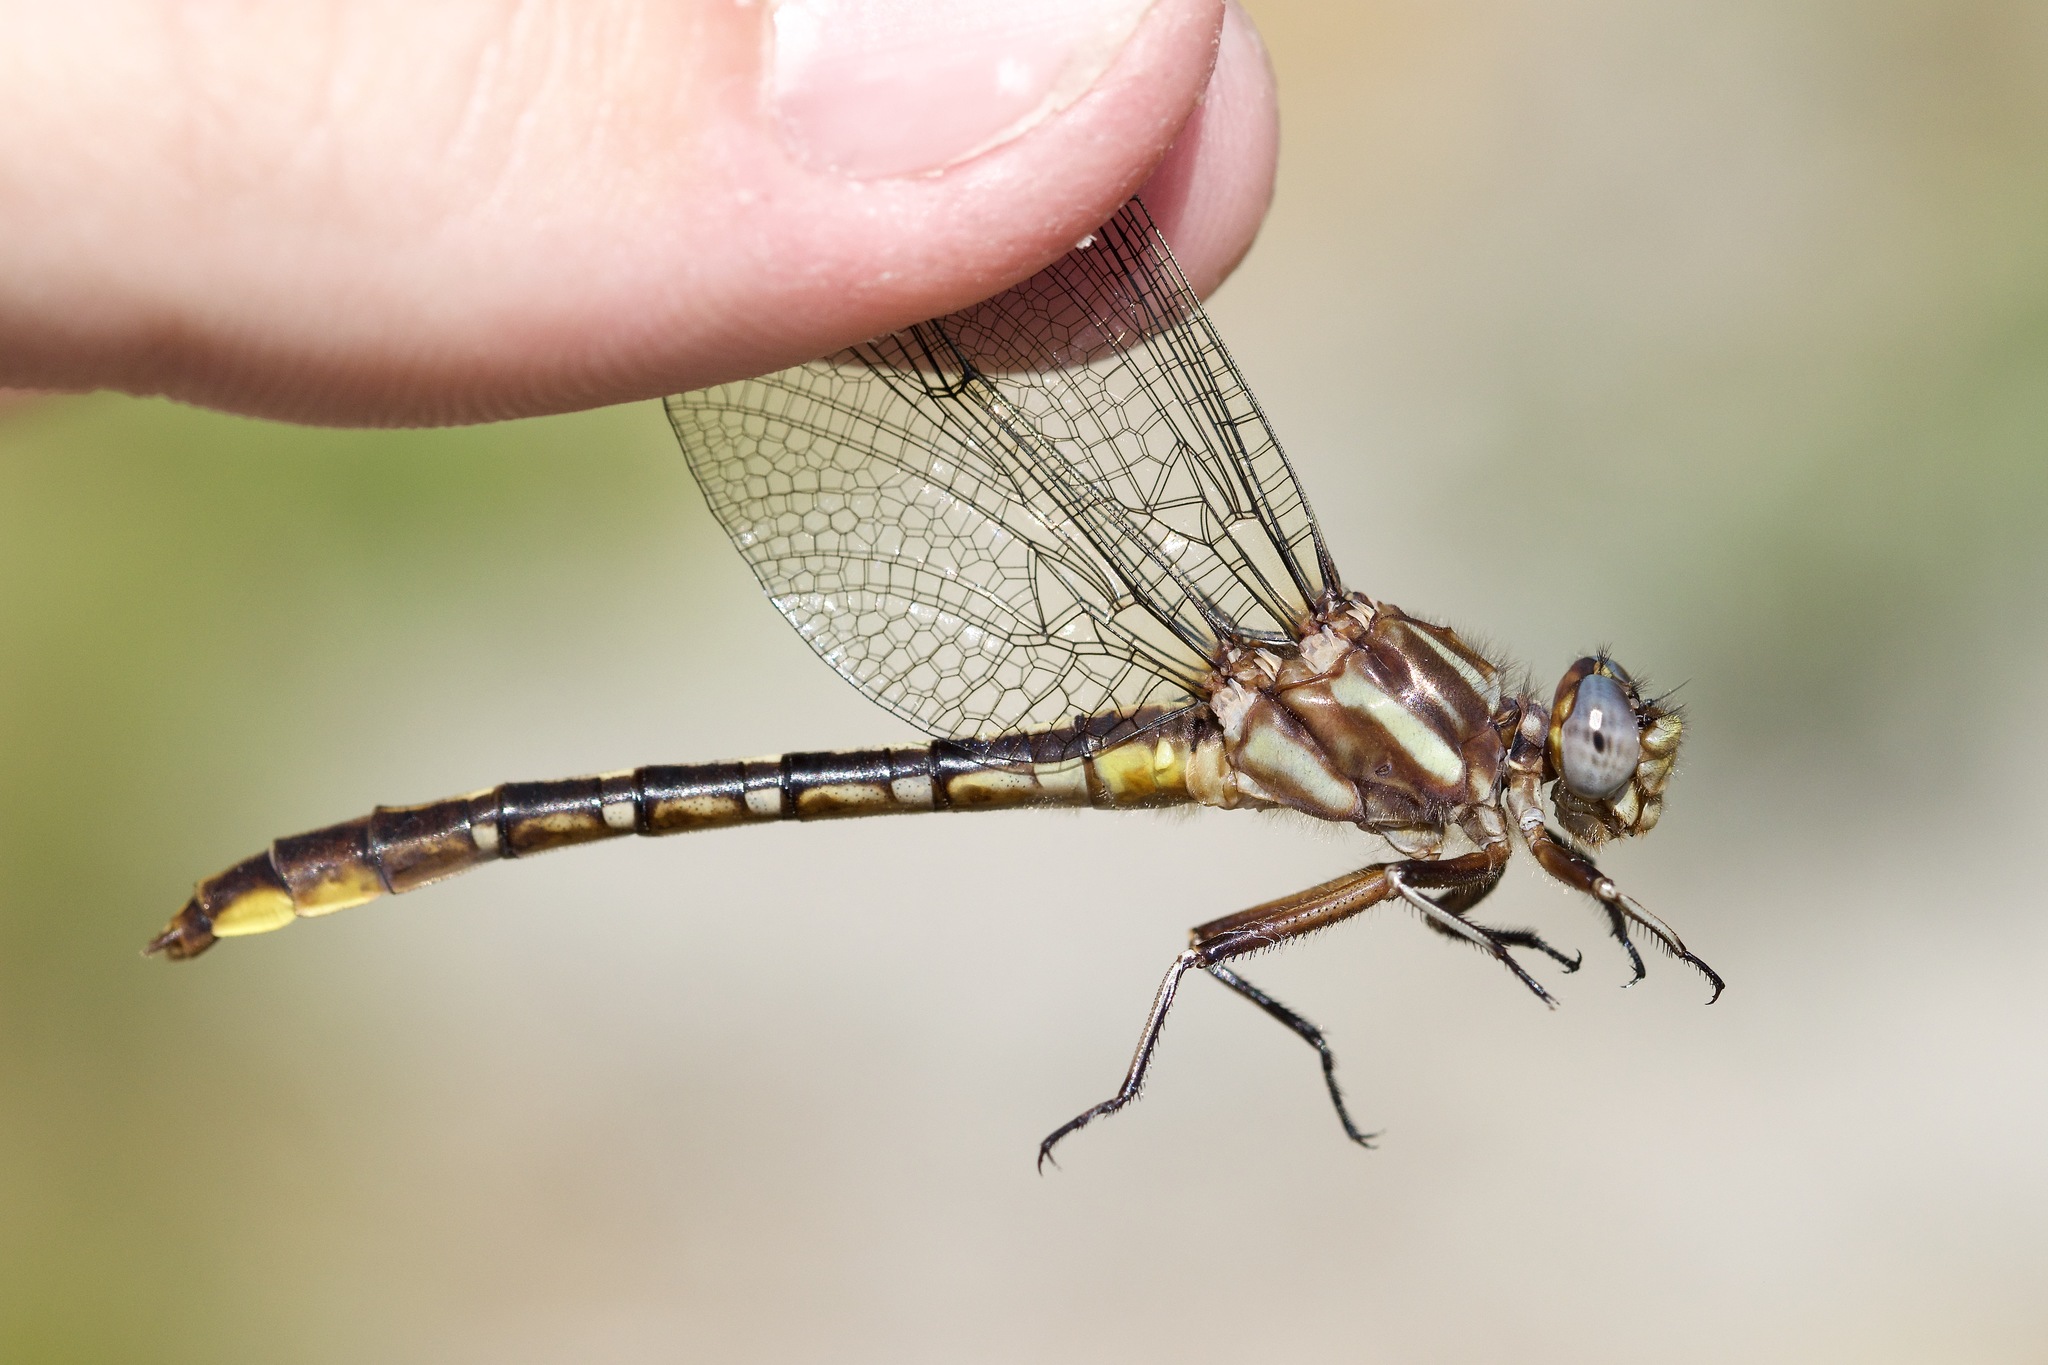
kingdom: Animalia
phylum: Arthropoda
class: Insecta
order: Odonata
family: Gomphidae
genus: Phanogomphus
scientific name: Phanogomphus exilis
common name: Lancet clubtail
